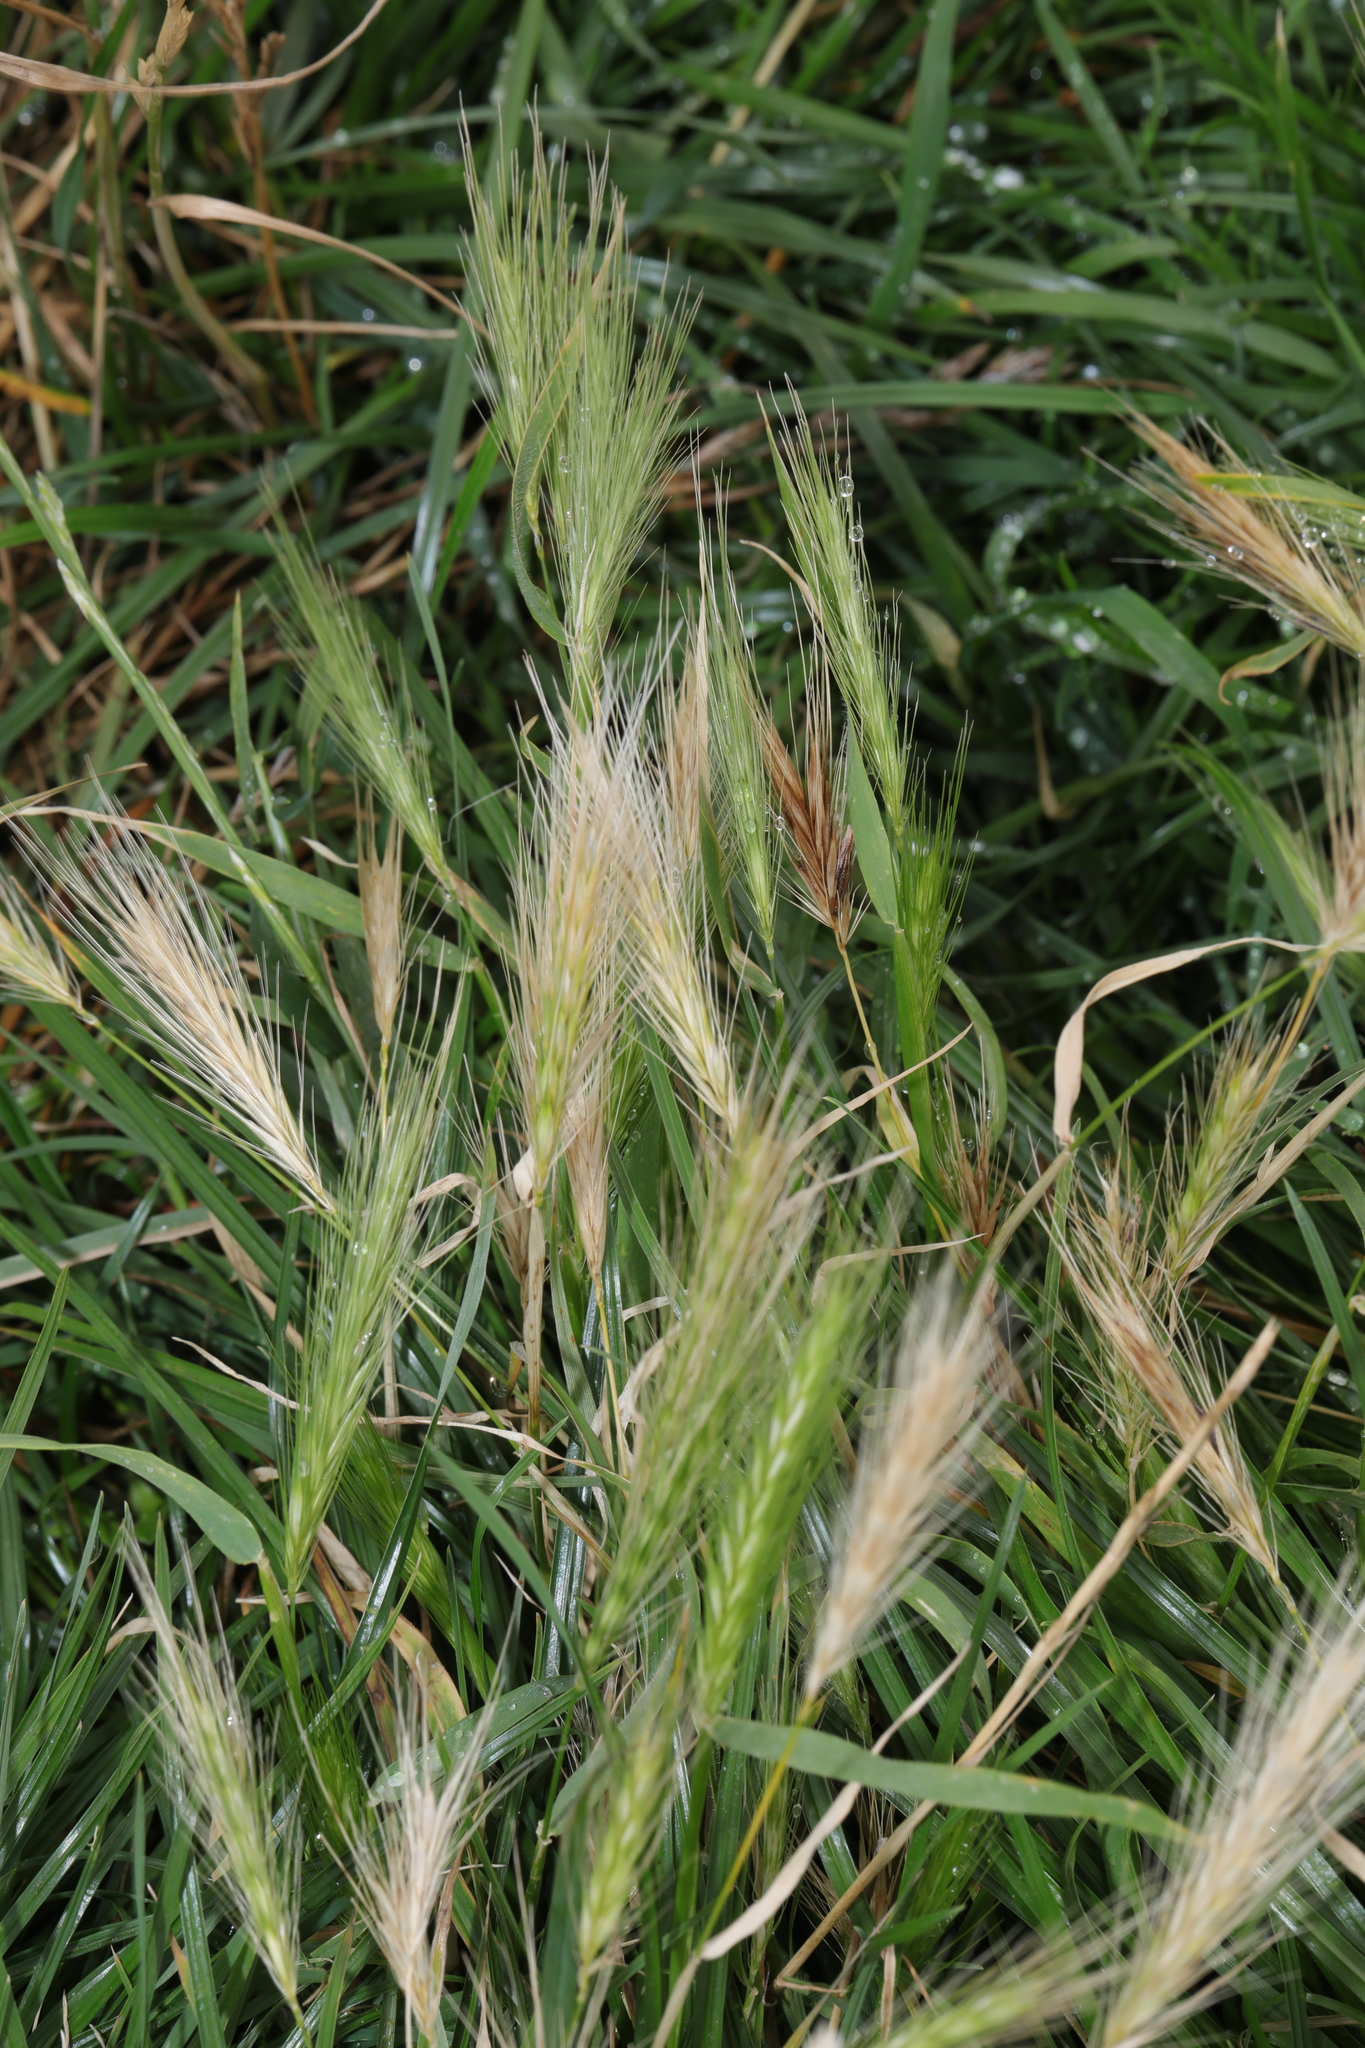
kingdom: Plantae
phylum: Tracheophyta
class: Liliopsida
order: Poales
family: Poaceae
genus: Hordeum
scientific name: Hordeum murinum
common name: Wall barley
